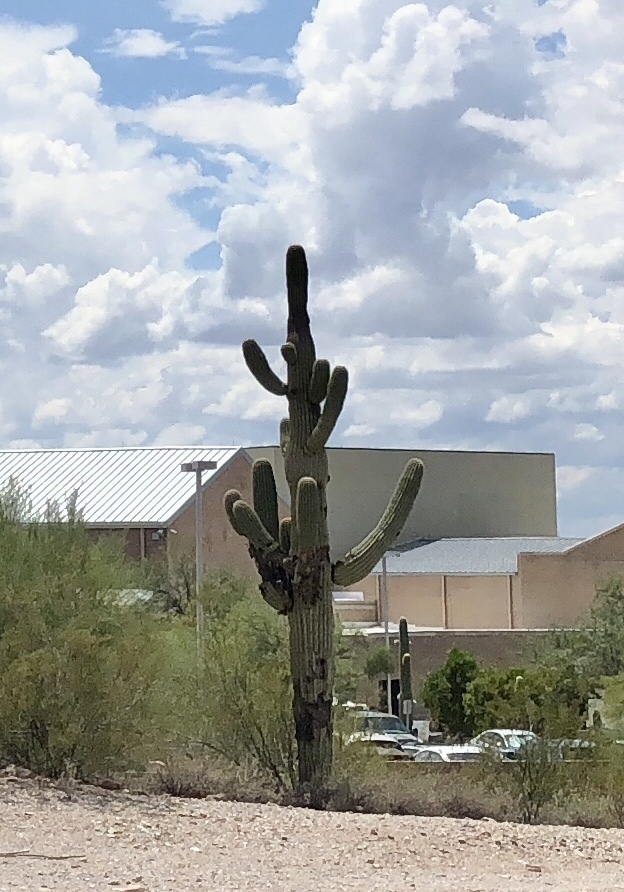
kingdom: Plantae
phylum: Tracheophyta
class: Magnoliopsida
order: Caryophyllales
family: Cactaceae
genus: Carnegiea
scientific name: Carnegiea gigantea
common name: Saguaro
